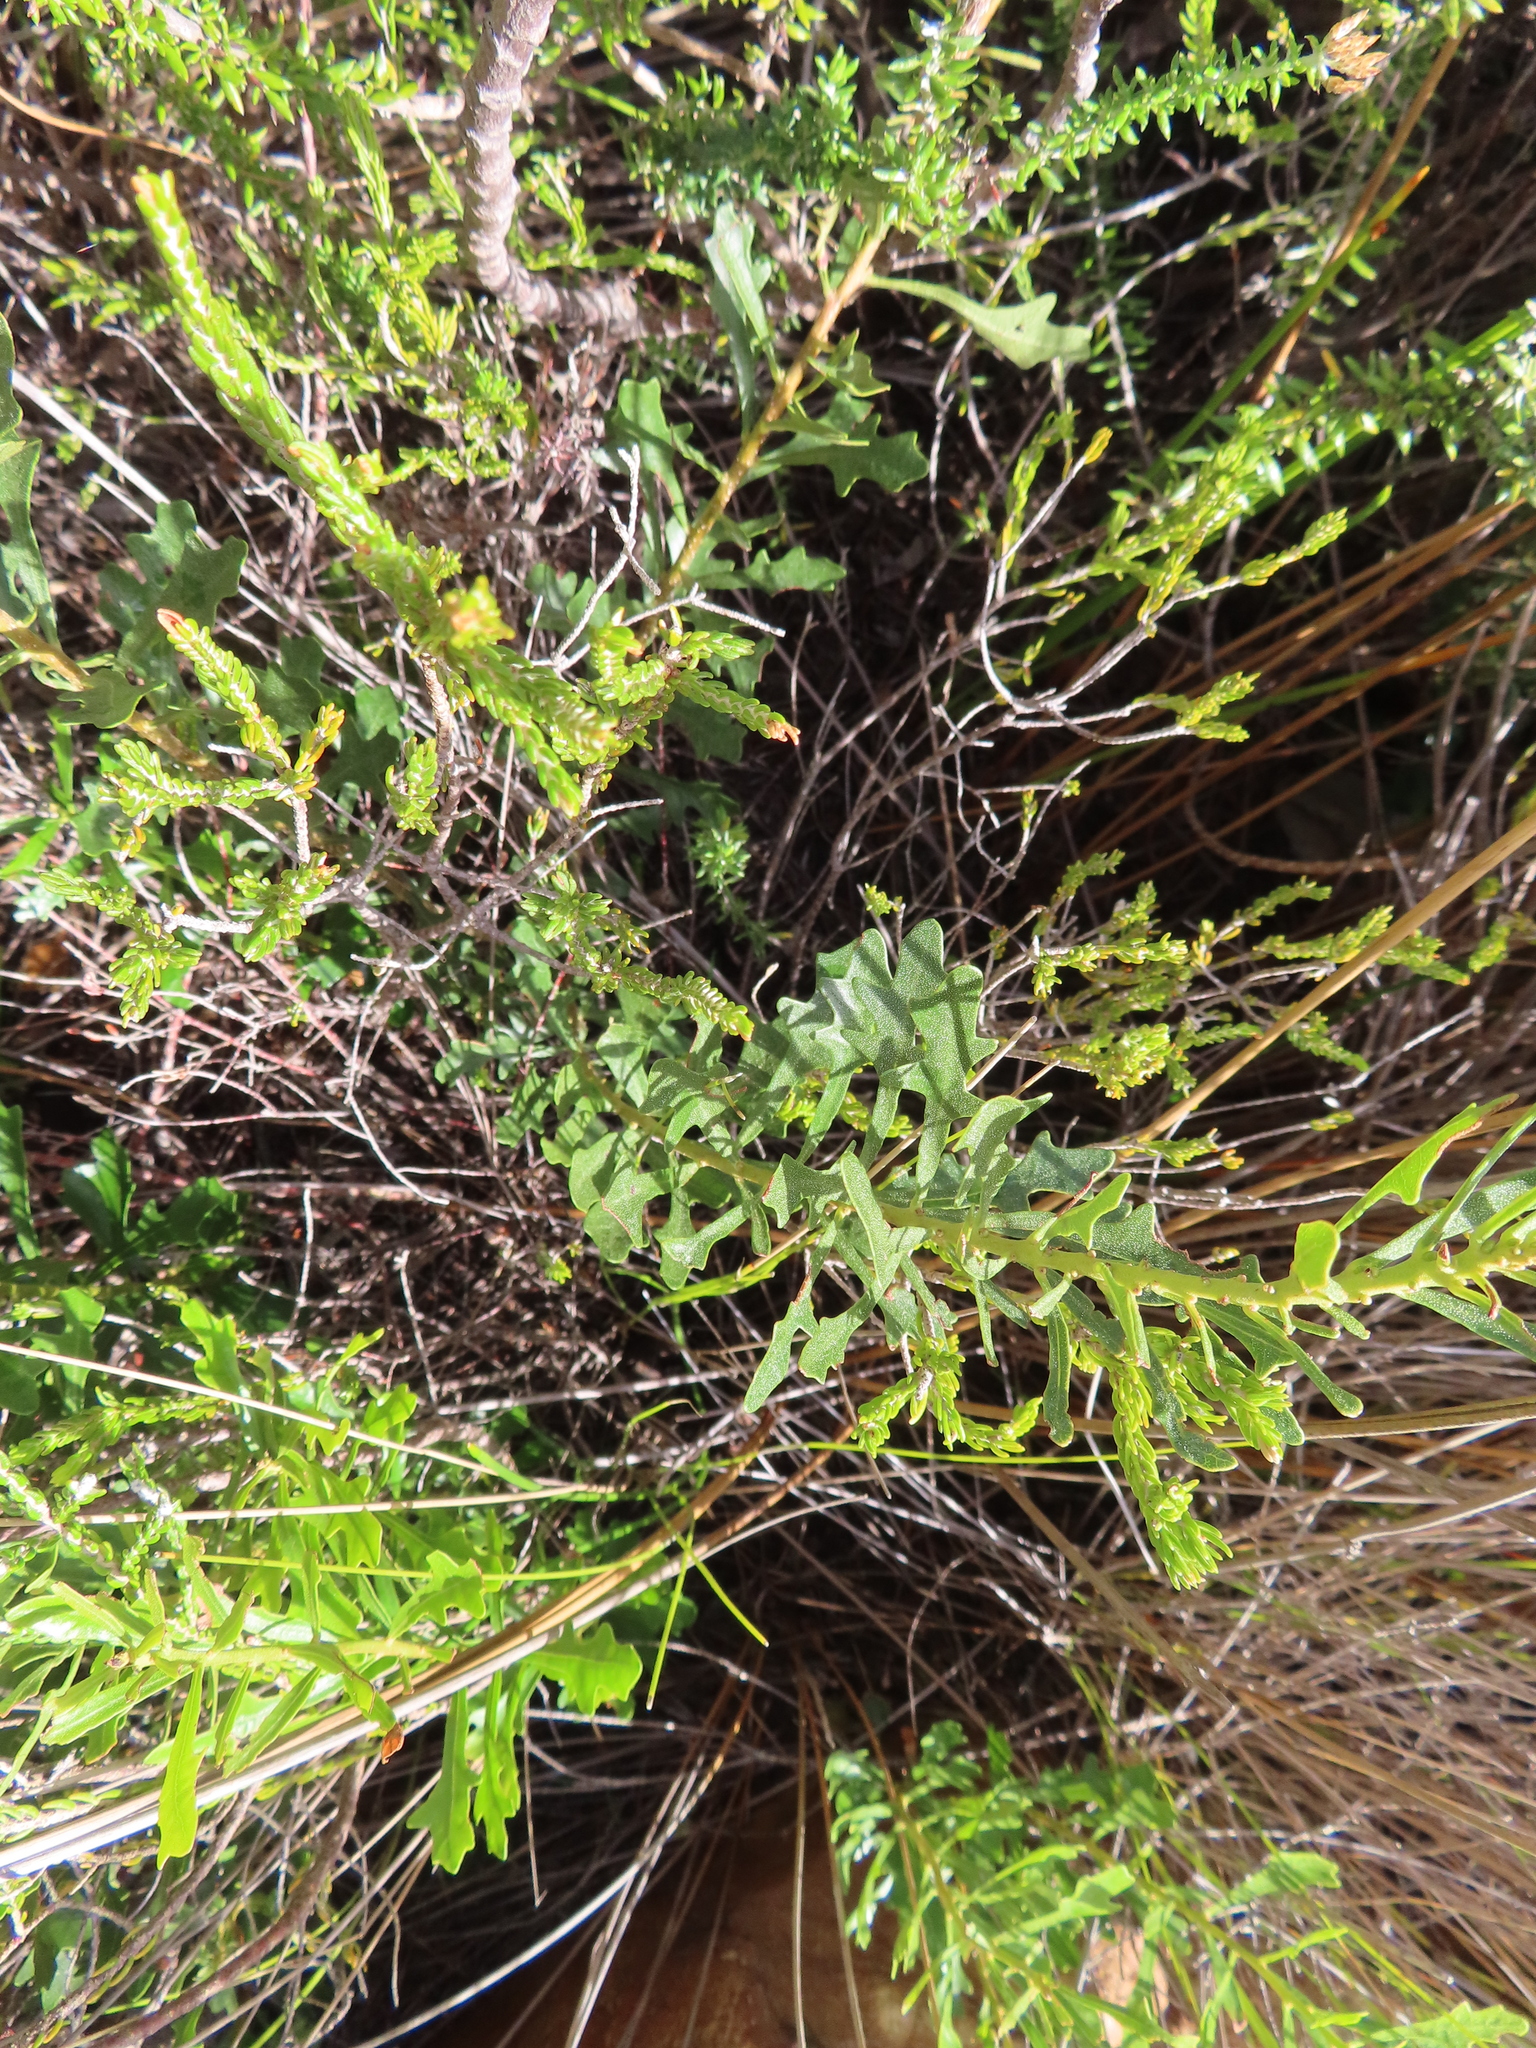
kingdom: Plantae
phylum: Tracheophyta
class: Magnoliopsida
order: Fagales
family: Myricaceae
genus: Morella
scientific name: Morella quercifolia
